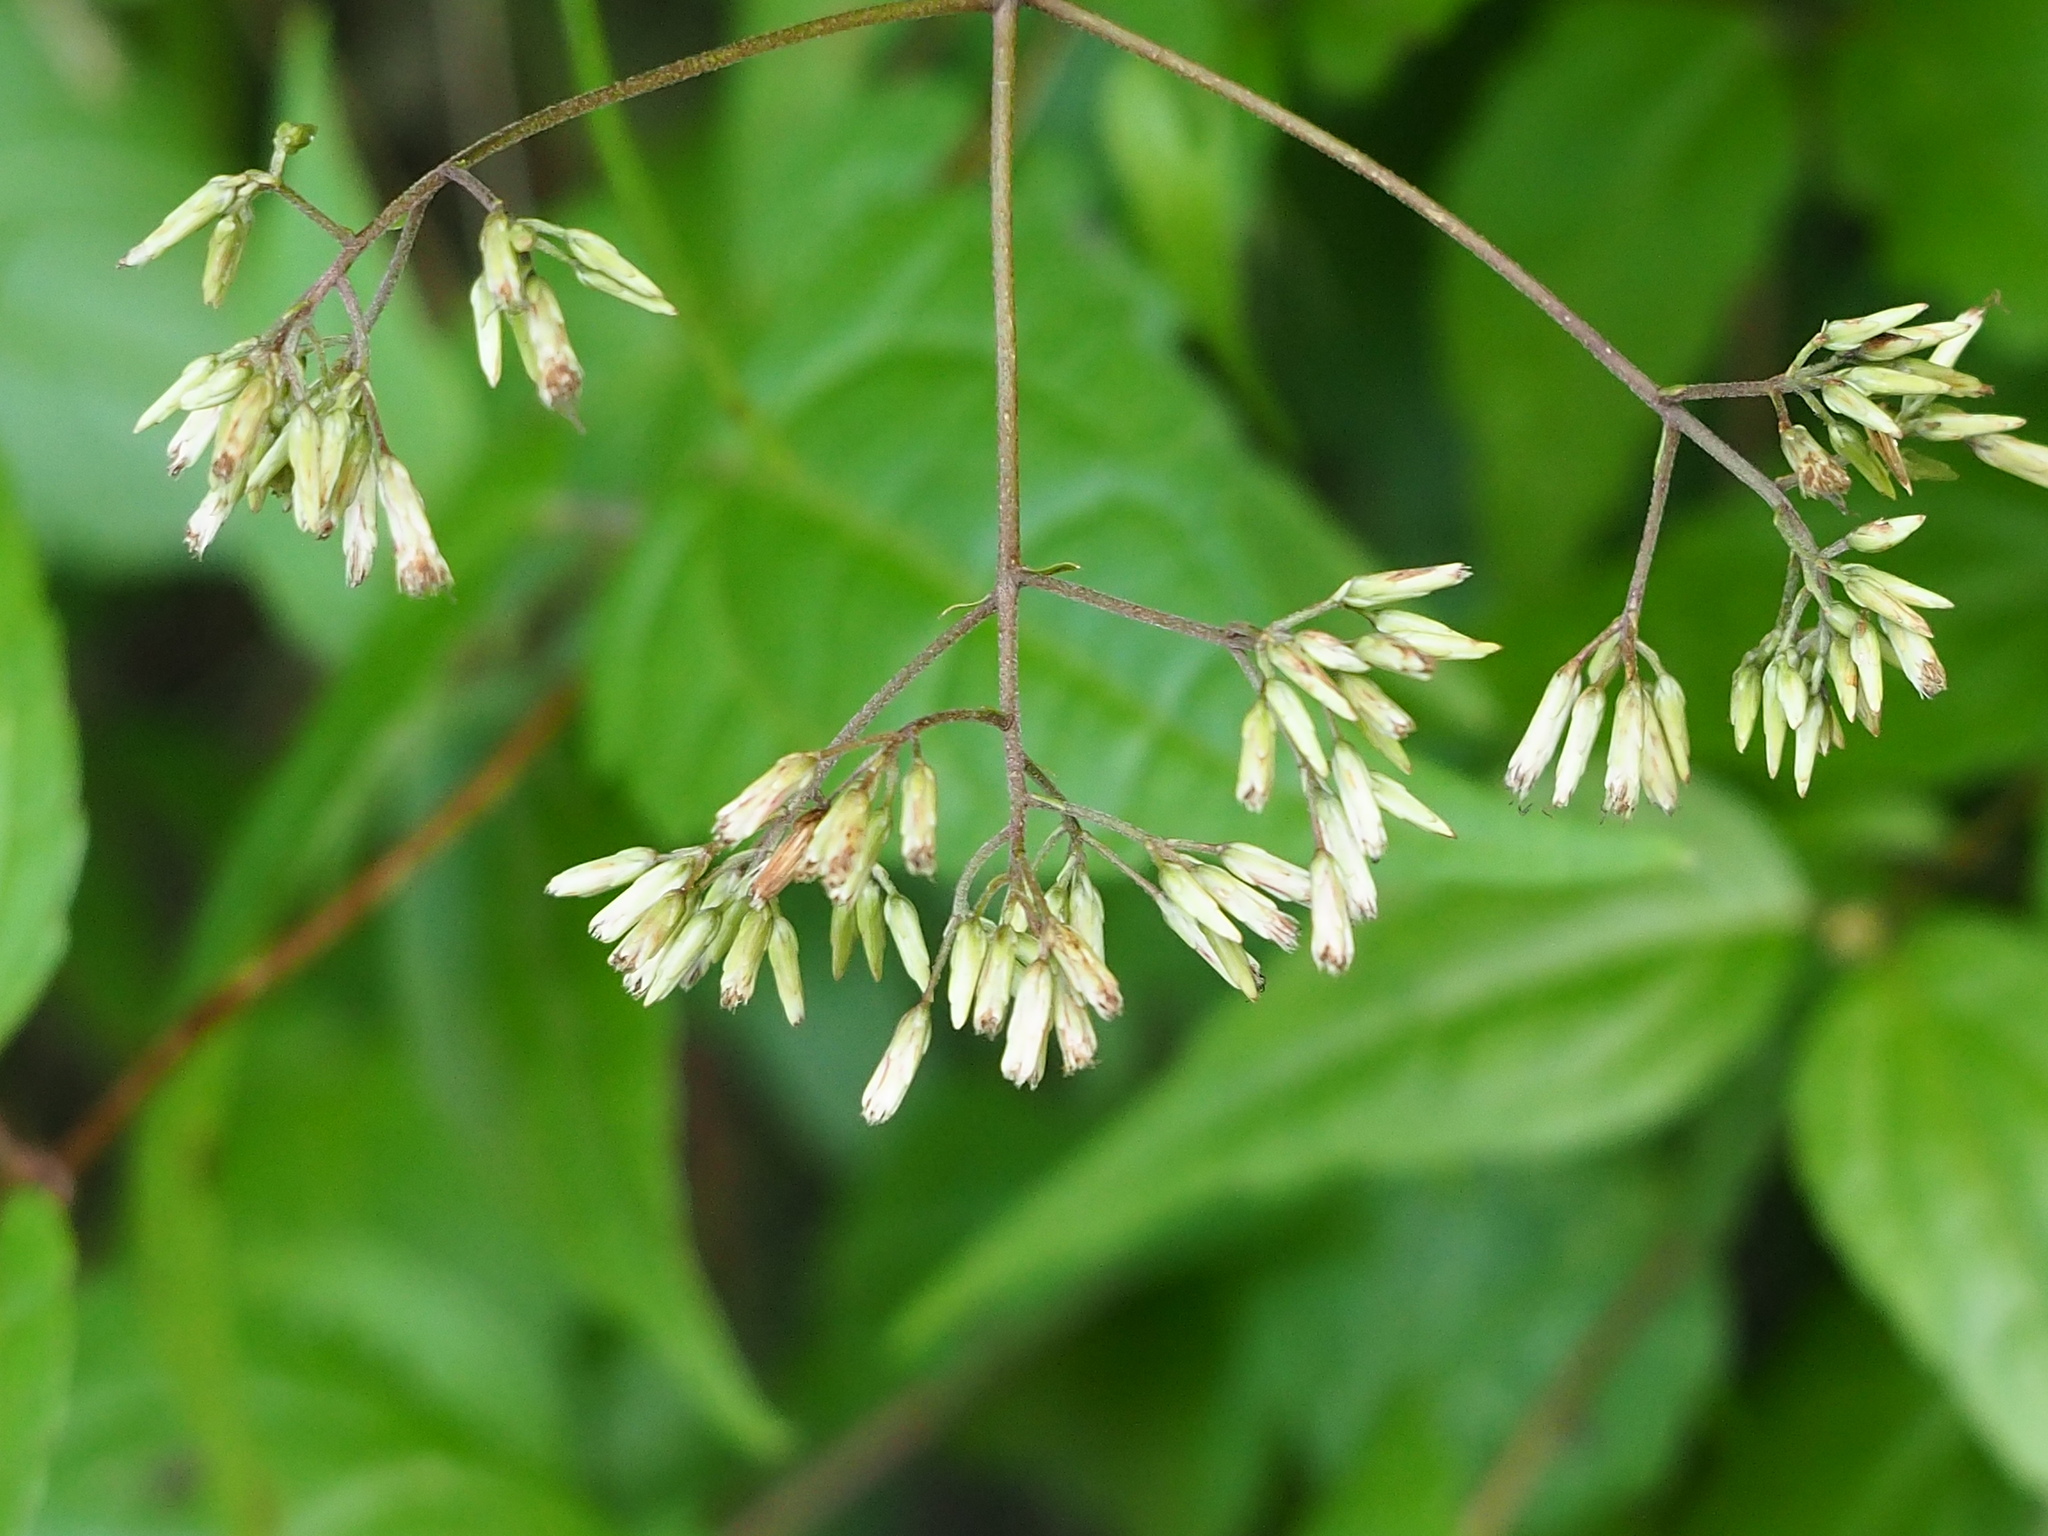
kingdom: Plantae
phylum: Tracheophyta
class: Magnoliopsida
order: Asterales
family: Asteraceae
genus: Eupatorium
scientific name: Eupatorium tashiroi
